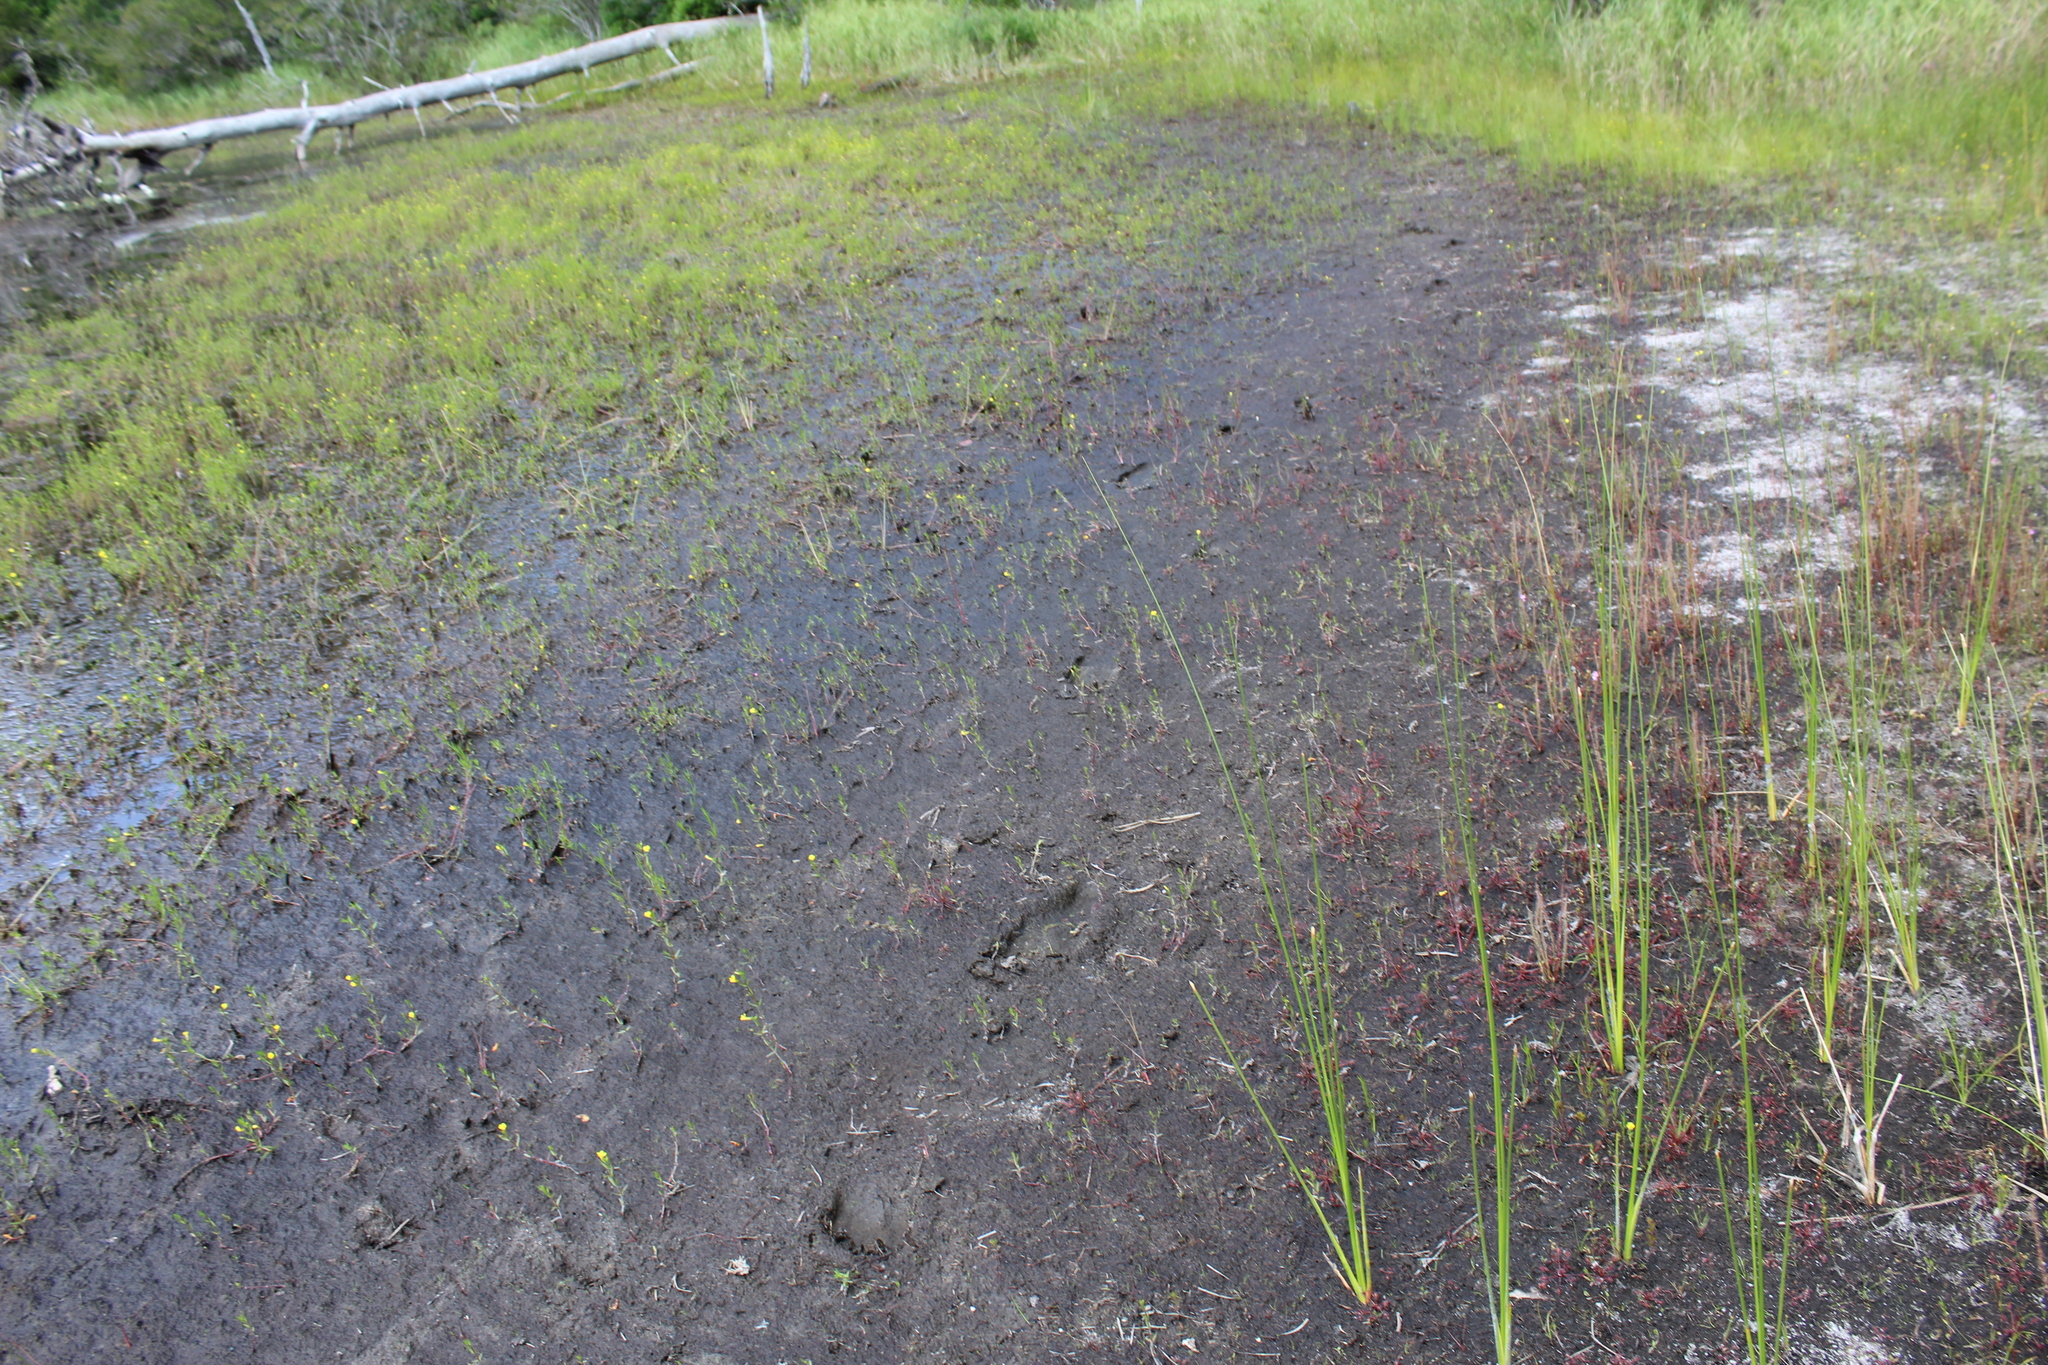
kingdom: Plantae
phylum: Tracheophyta
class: Magnoliopsida
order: Caryophyllales
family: Droseraceae
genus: Drosera
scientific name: Drosera filiformis
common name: Dew-thread
